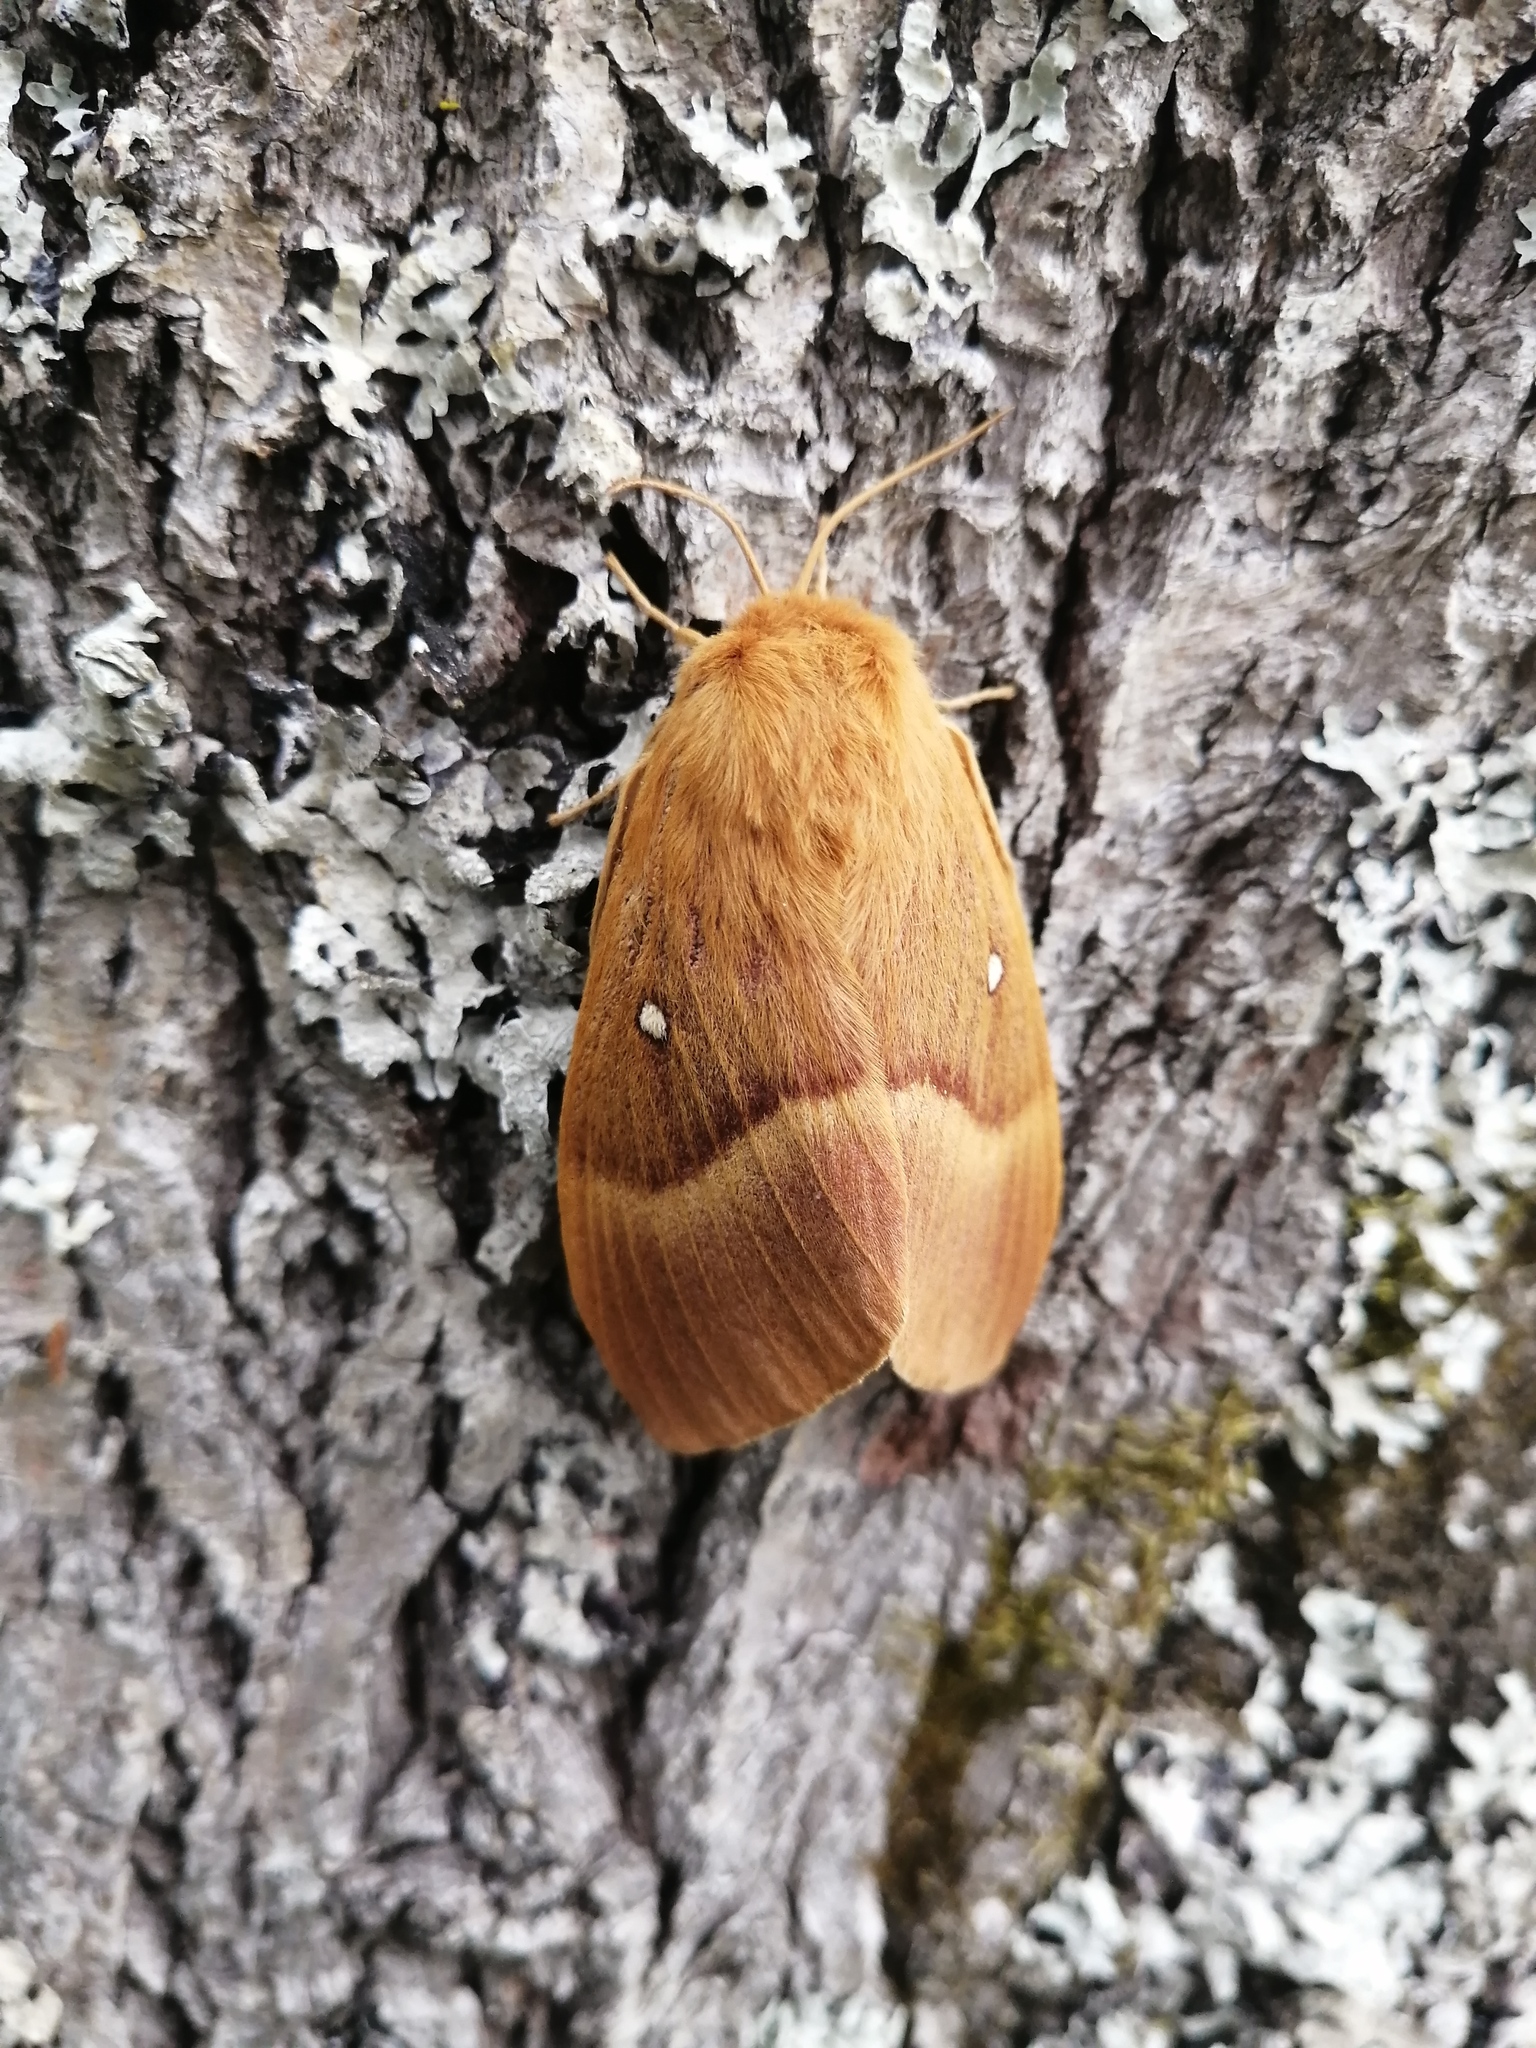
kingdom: Animalia
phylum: Arthropoda
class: Insecta
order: Lepidoptera
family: Lasiocampidae
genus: Lasiocampa
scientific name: Lasiocampa quercus
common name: Oak eggar
